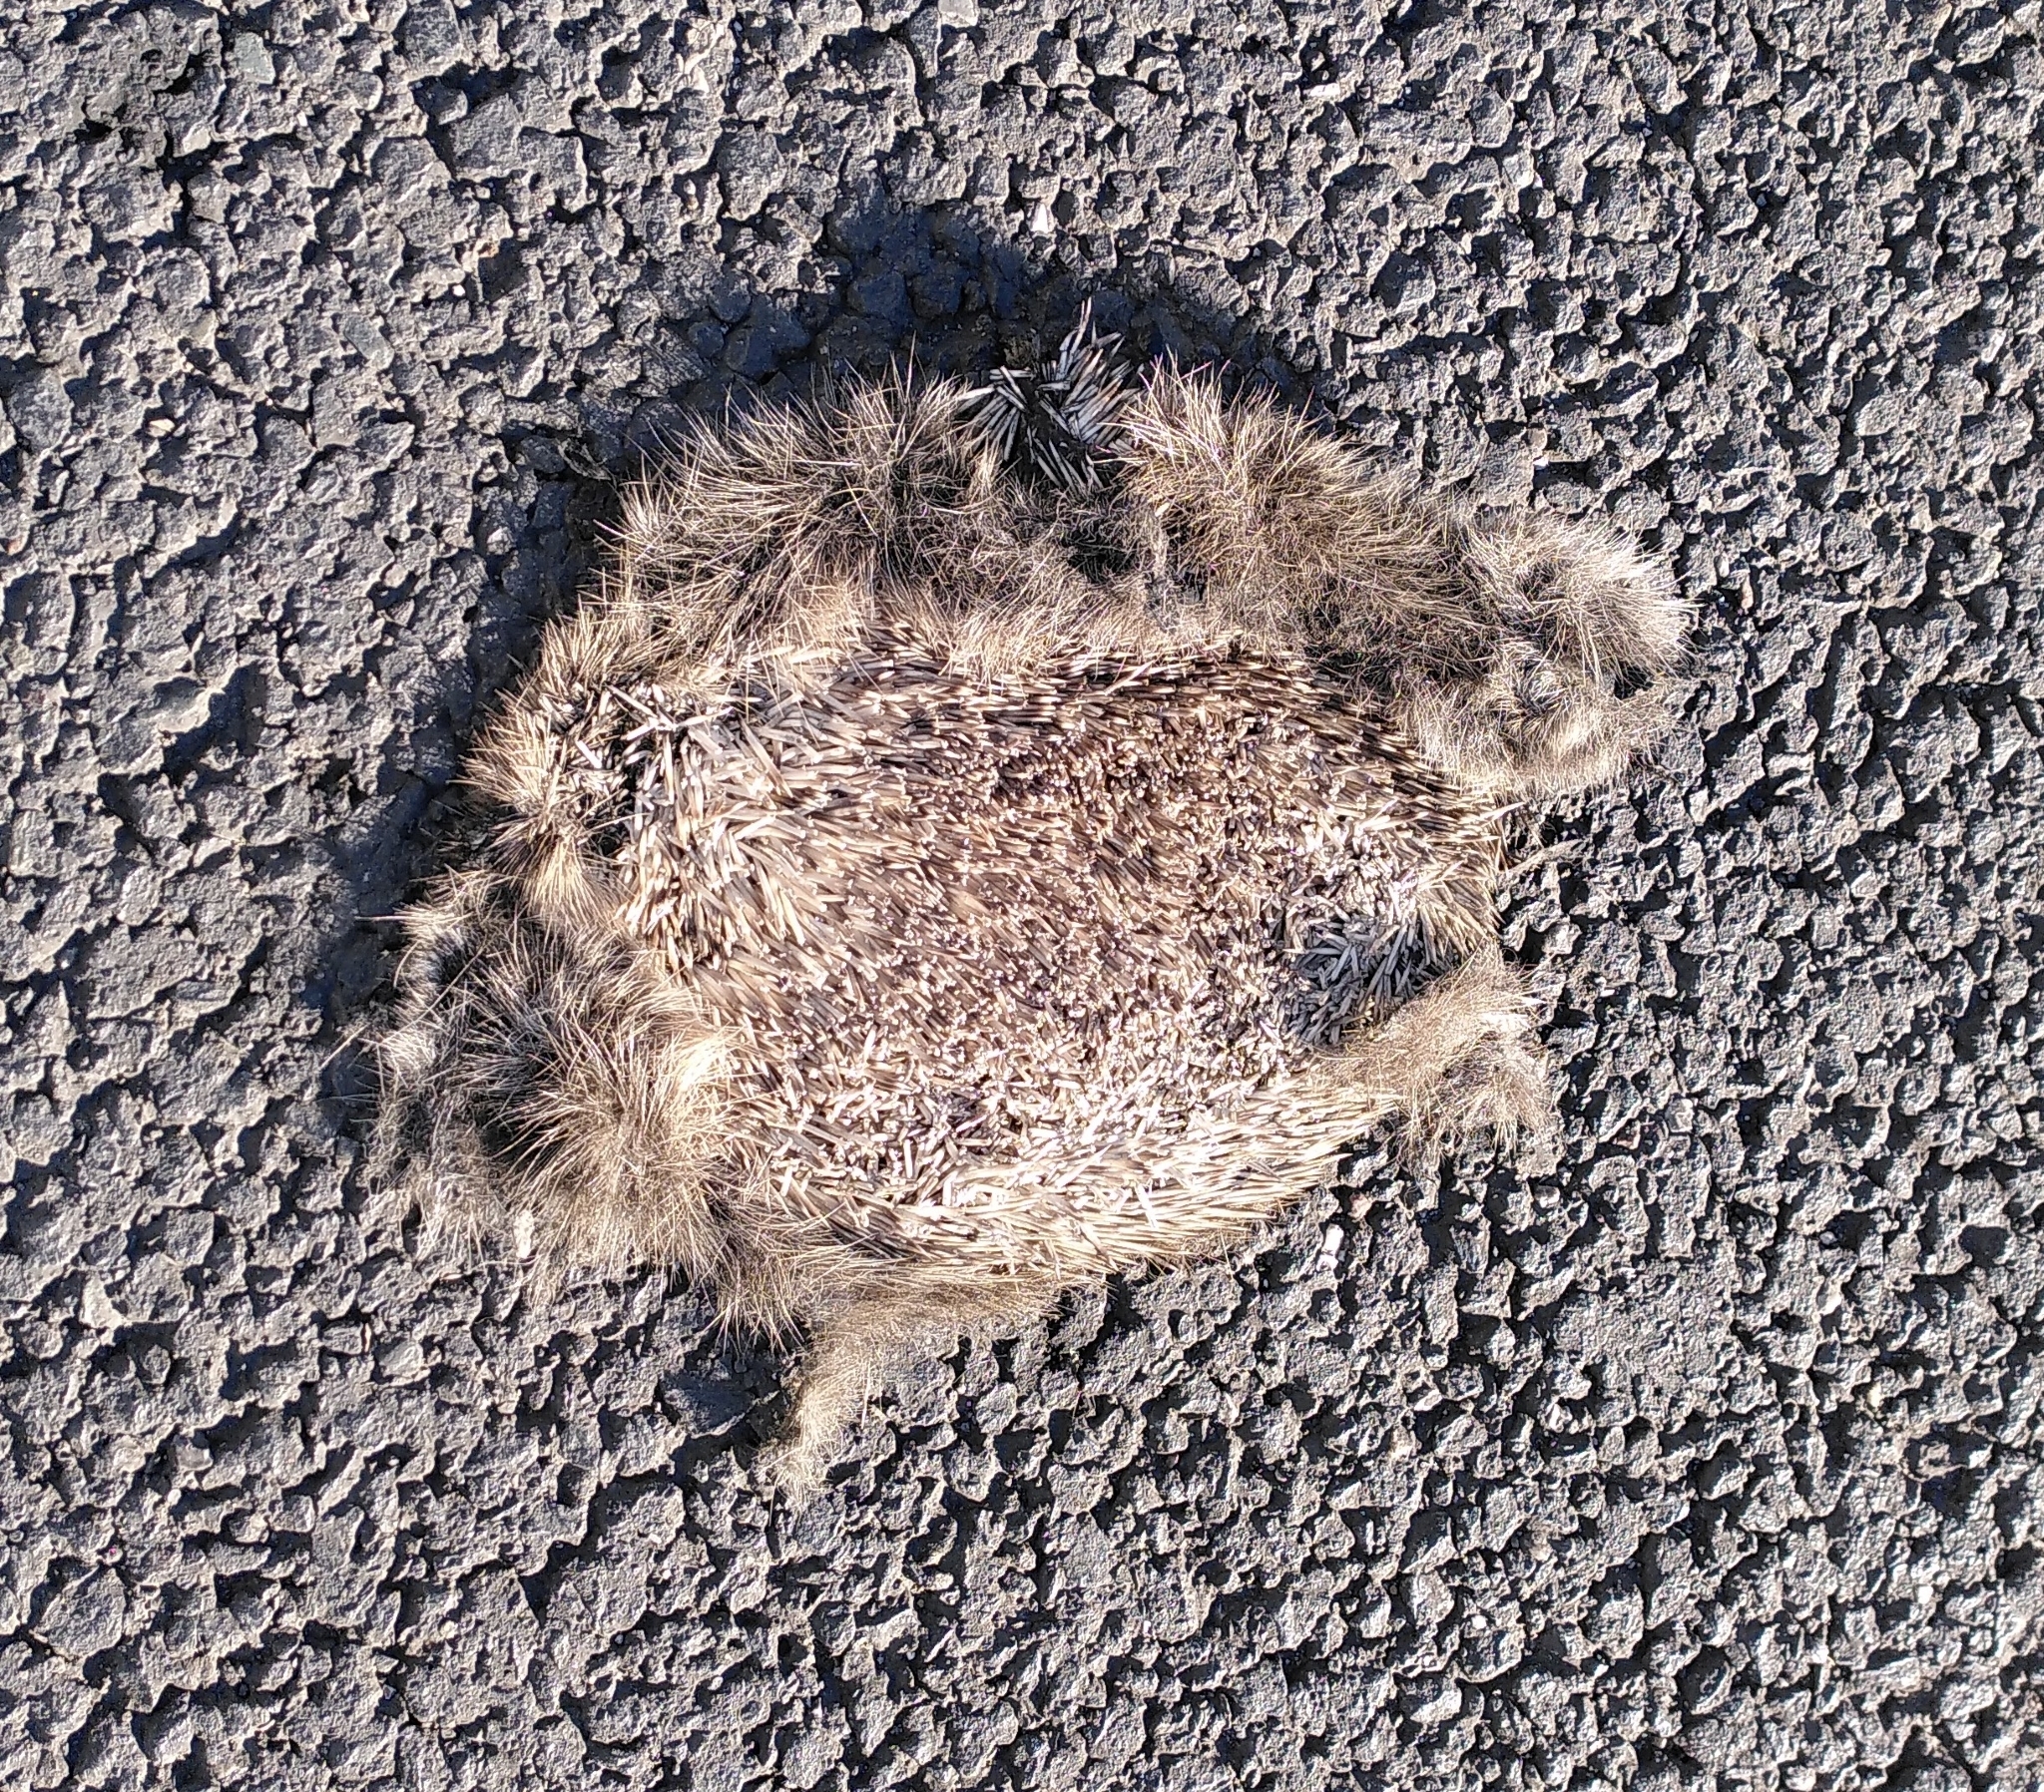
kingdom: Animalia
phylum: Chordata
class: Mammalia
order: Erinaceomorpha
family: Erinaceidae
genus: Erinaceus
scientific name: Erinaceus europaeus
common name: West european hedgehog
